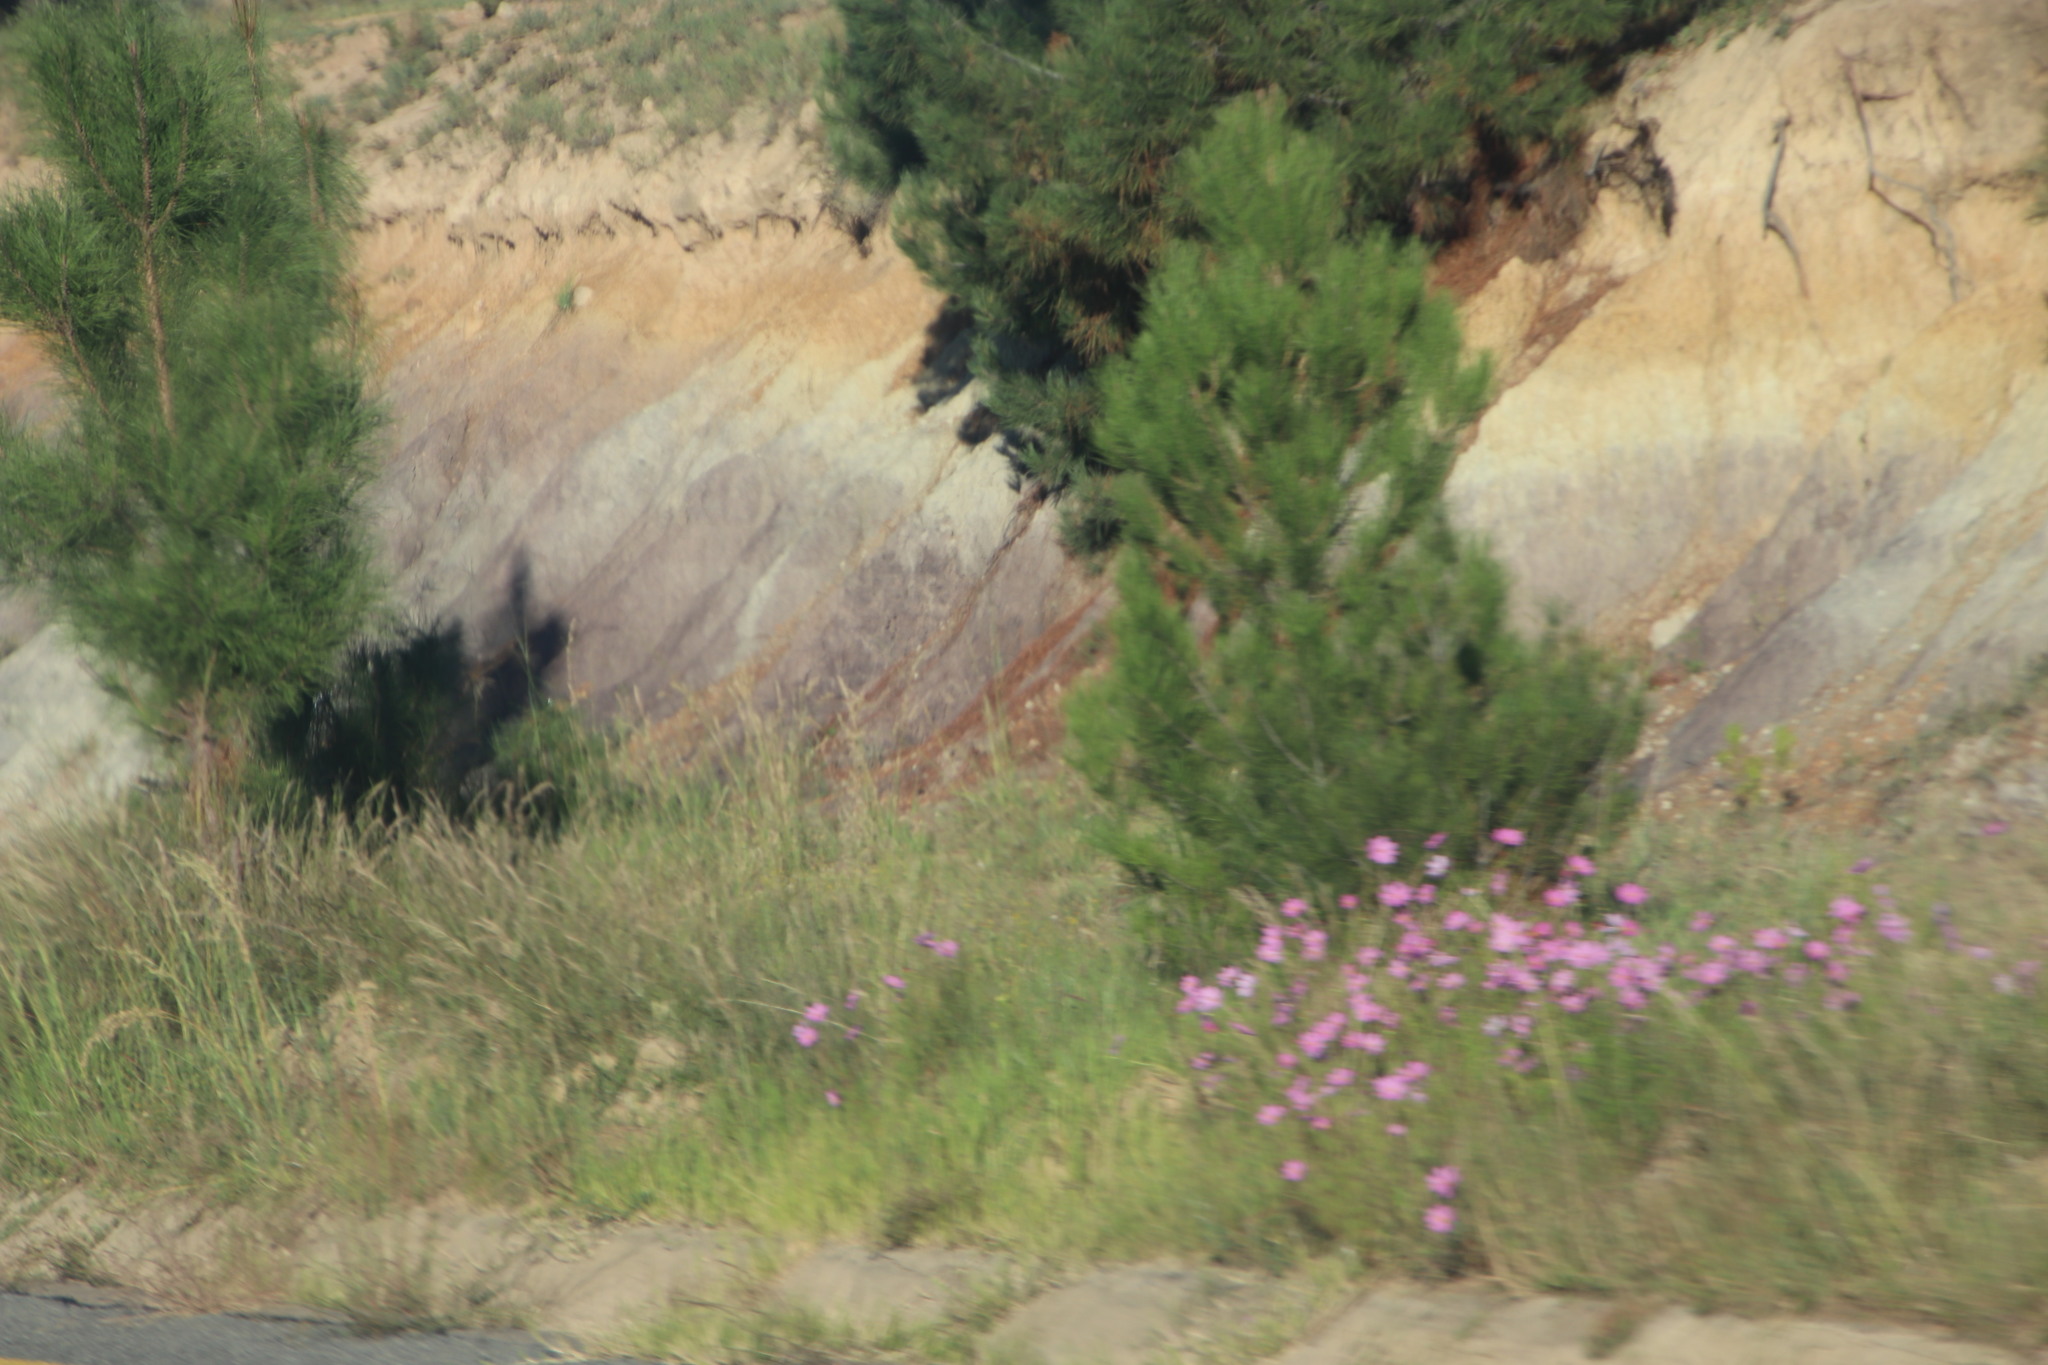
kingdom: Plantae
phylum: Tracheophyta
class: Magnoliopsida
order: Asterales
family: Asteraceae
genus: Cosmos
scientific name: Cosmos bipinnatus
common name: Garden cosmos
